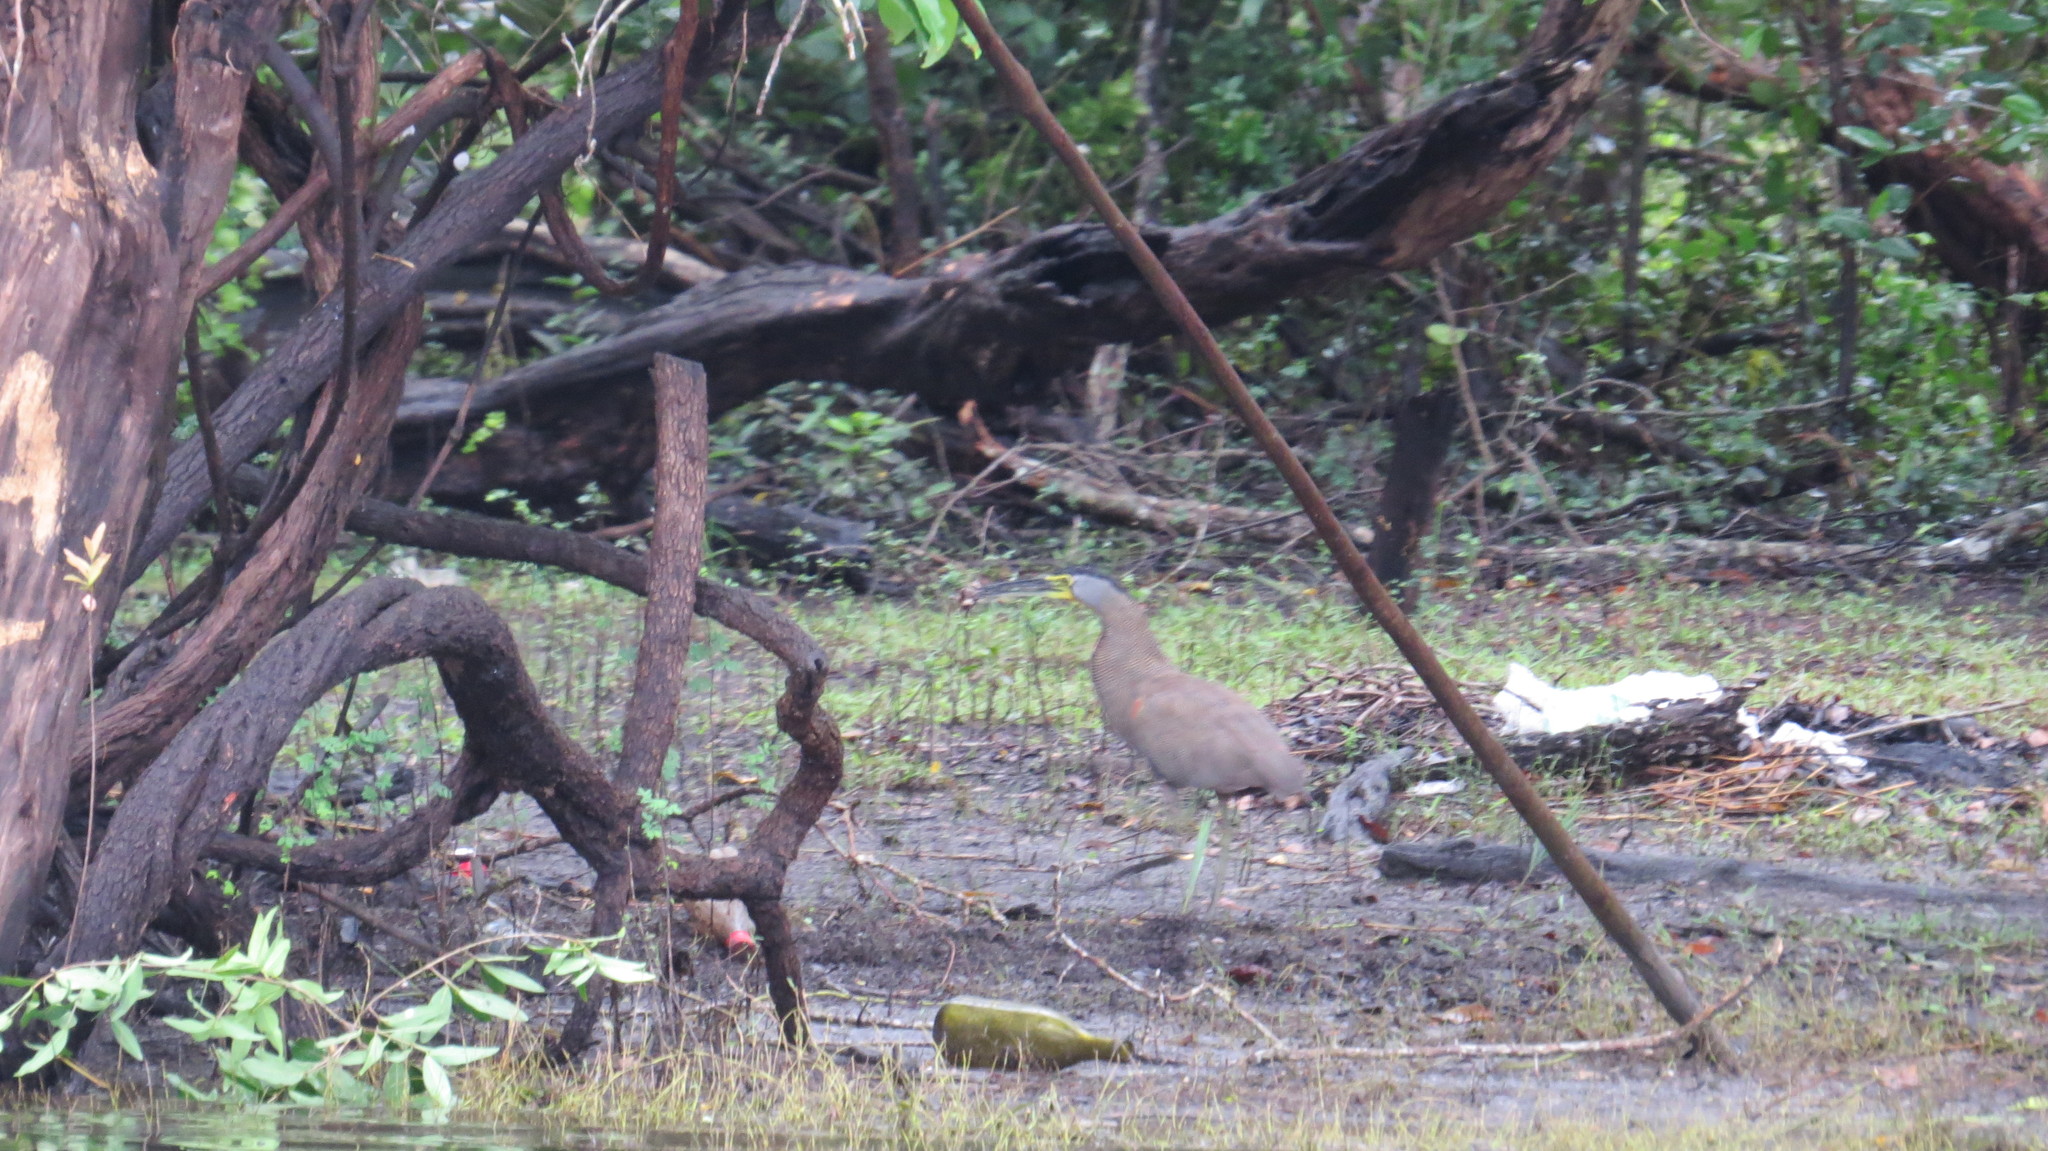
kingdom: Animalia
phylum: Chordata
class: Aves
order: Pelecaniformes
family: Ardeidae
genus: Tigrisoma
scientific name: Tigrisoma mexicanum
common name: Bare-throated tiger-heron
